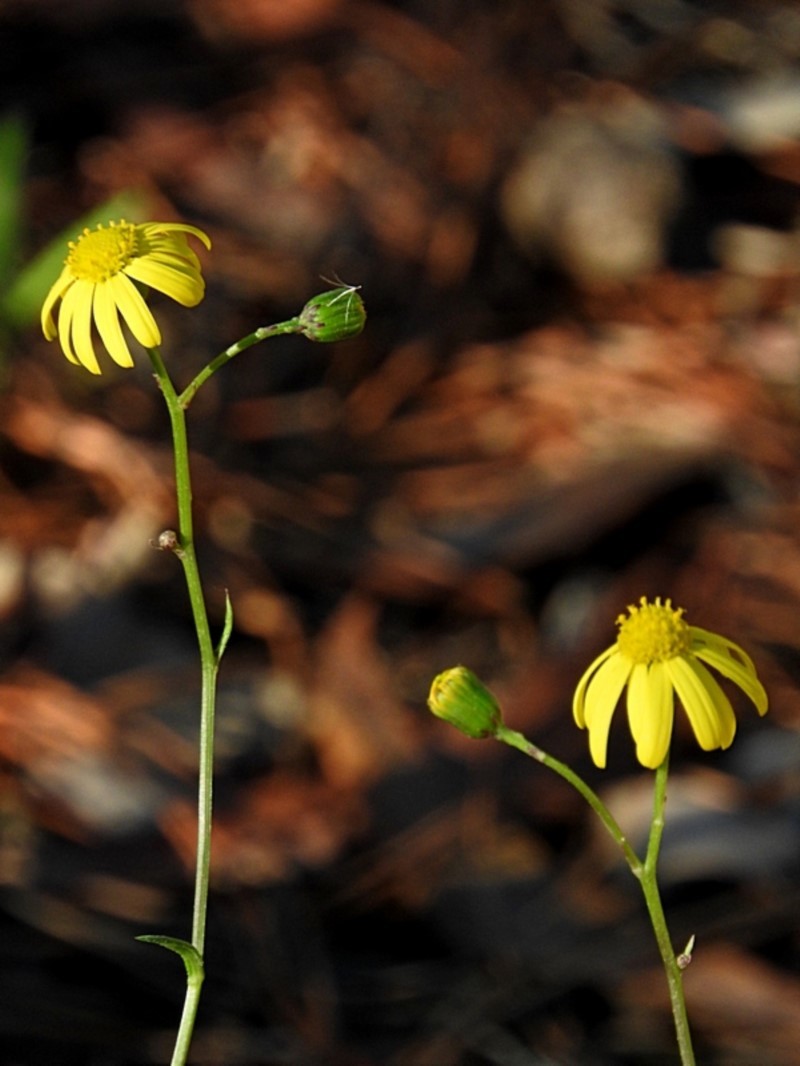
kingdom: Plantae
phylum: Tracheophyta
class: Magnoliopsida
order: Asterales
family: Asteraceae
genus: Senecio
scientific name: Senecio madagascariensis
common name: Madagascar ragwort
